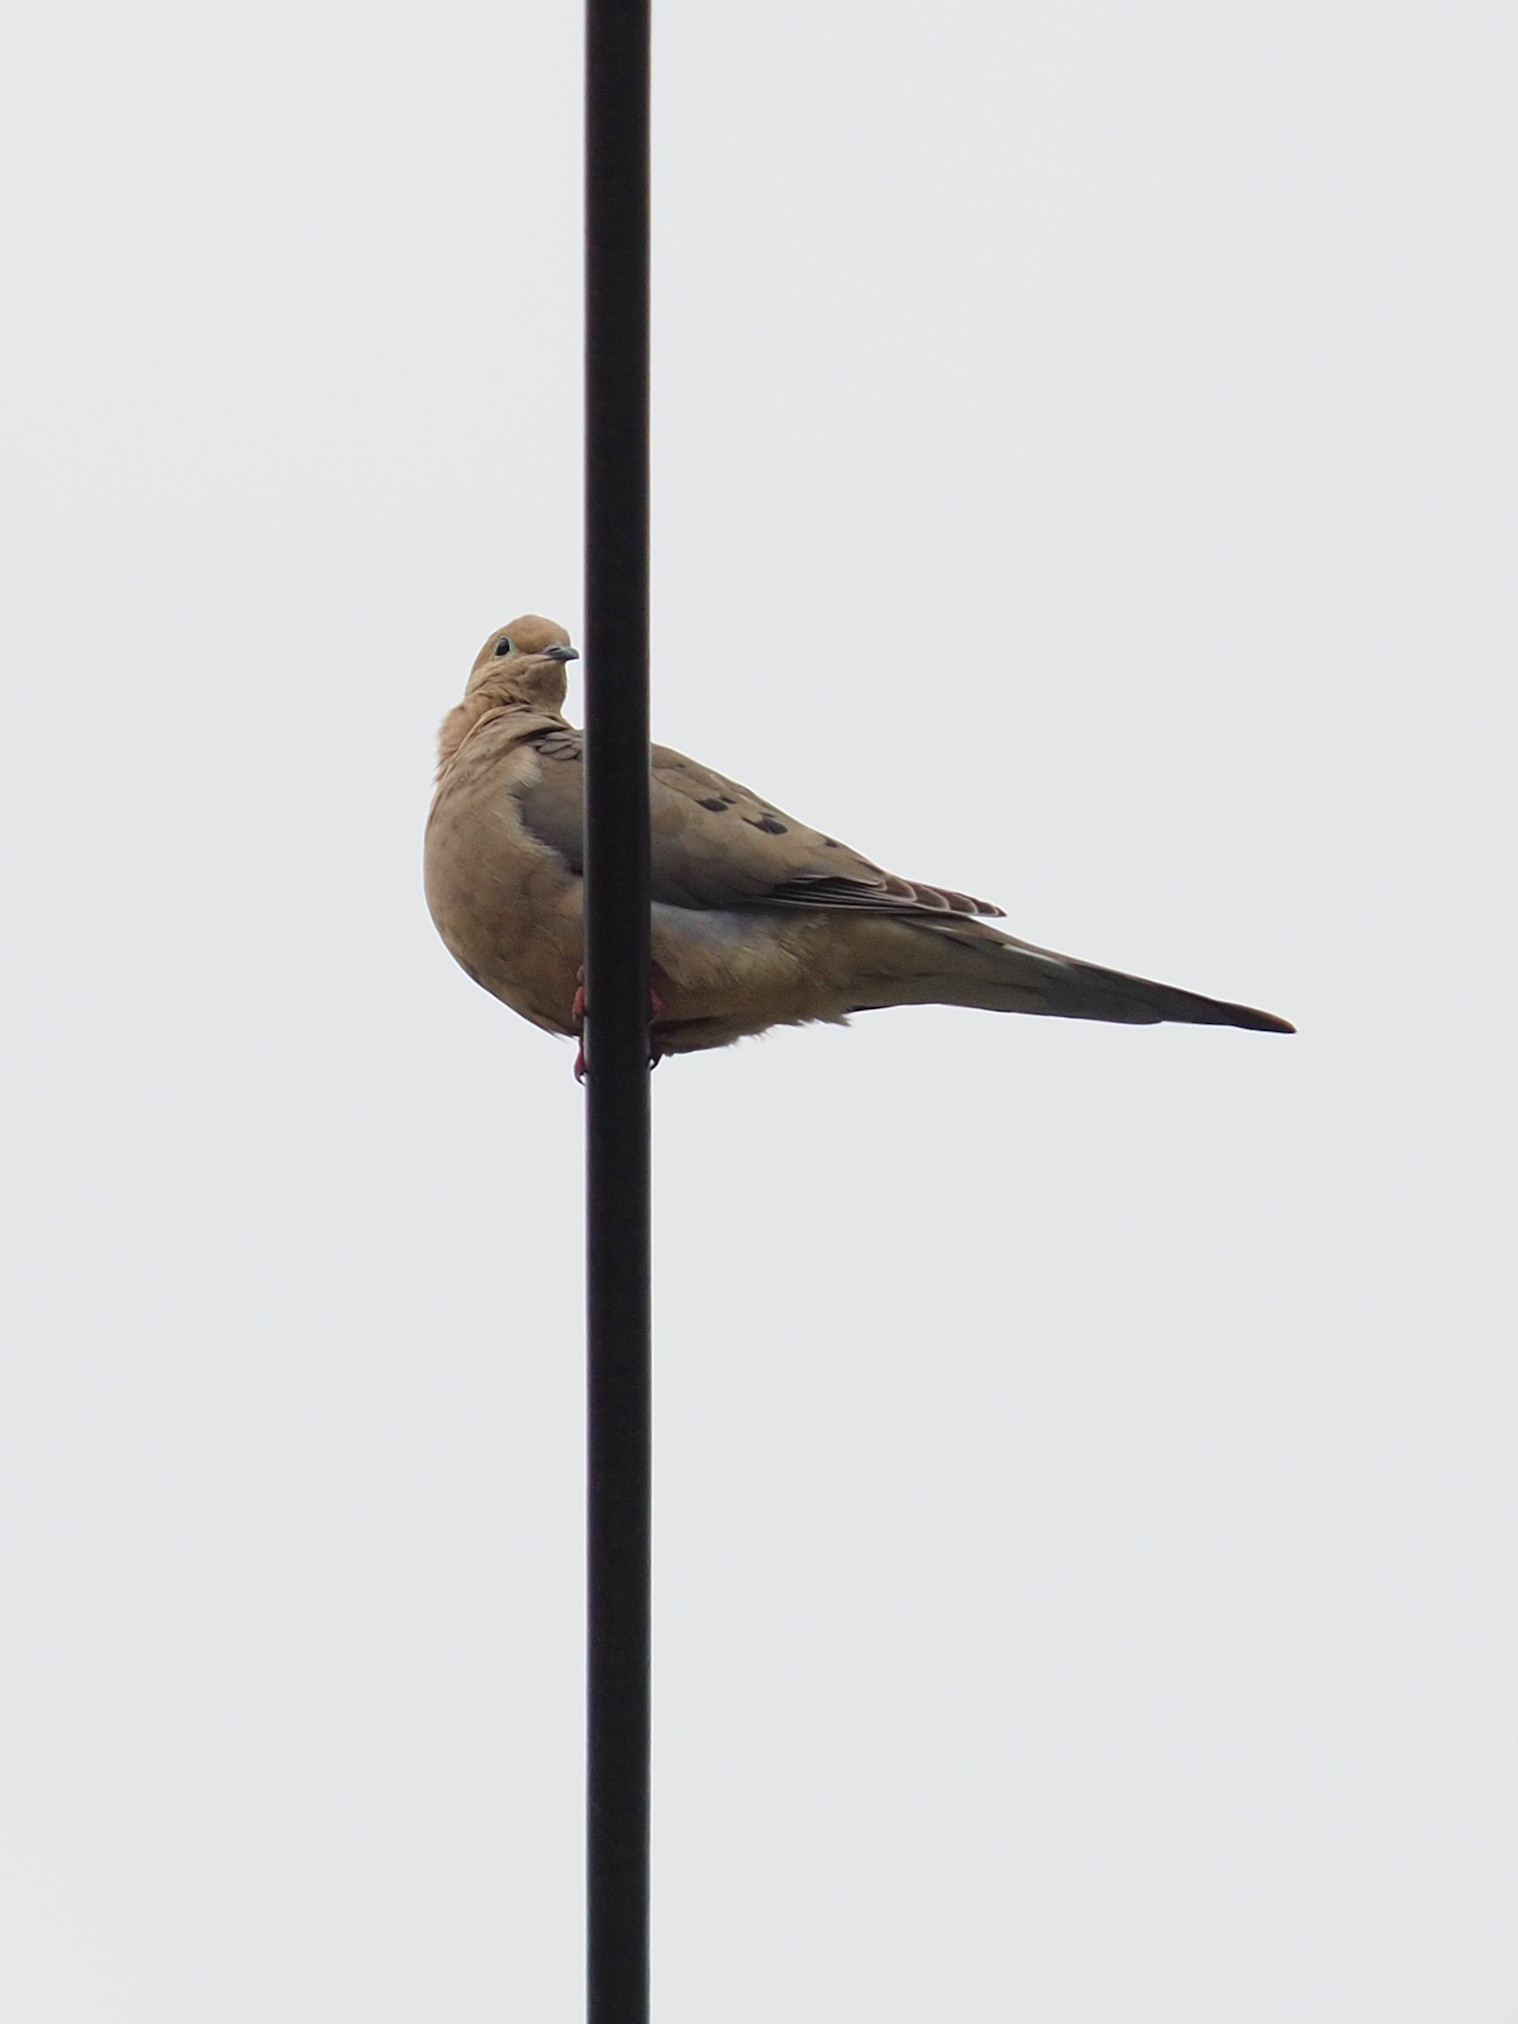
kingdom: Animalia
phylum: Chordata
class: Aves
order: Columbiformes
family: Columbidae
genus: Zenaida
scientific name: Zenaida macroura
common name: Mourning dove
